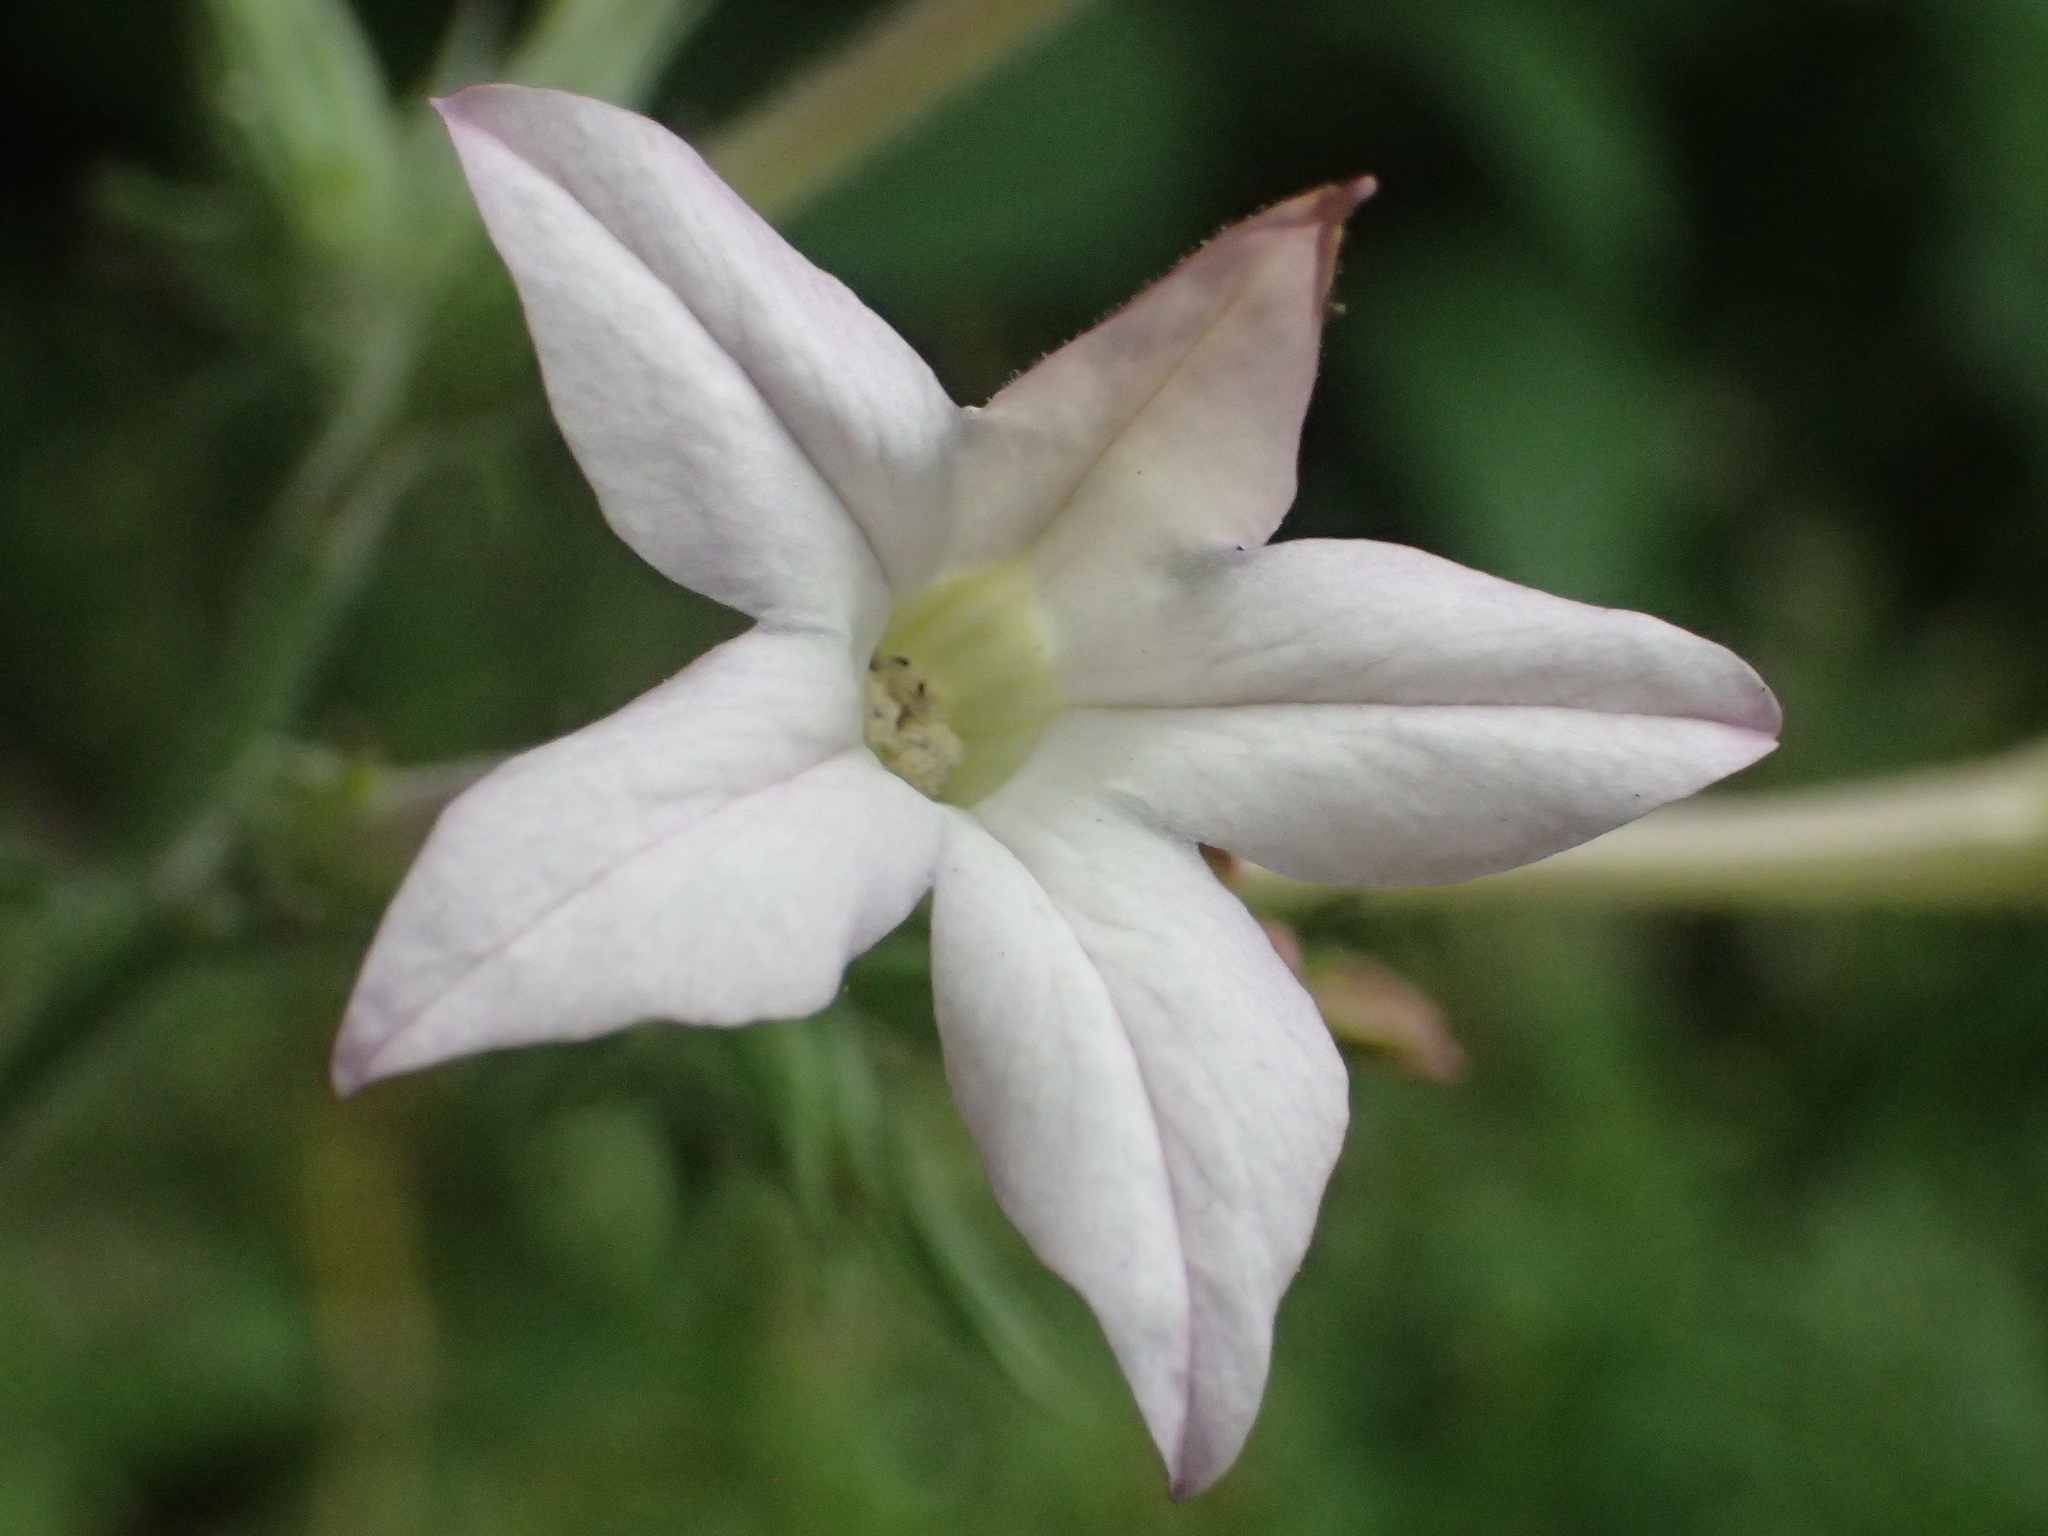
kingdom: Plantae
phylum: Tracheophyta
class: Magnoliopsida
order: Solanales
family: Solanaceae
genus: Nicotiana
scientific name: Nicotiana plumbaginifolia
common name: Tex-mex tobacco
